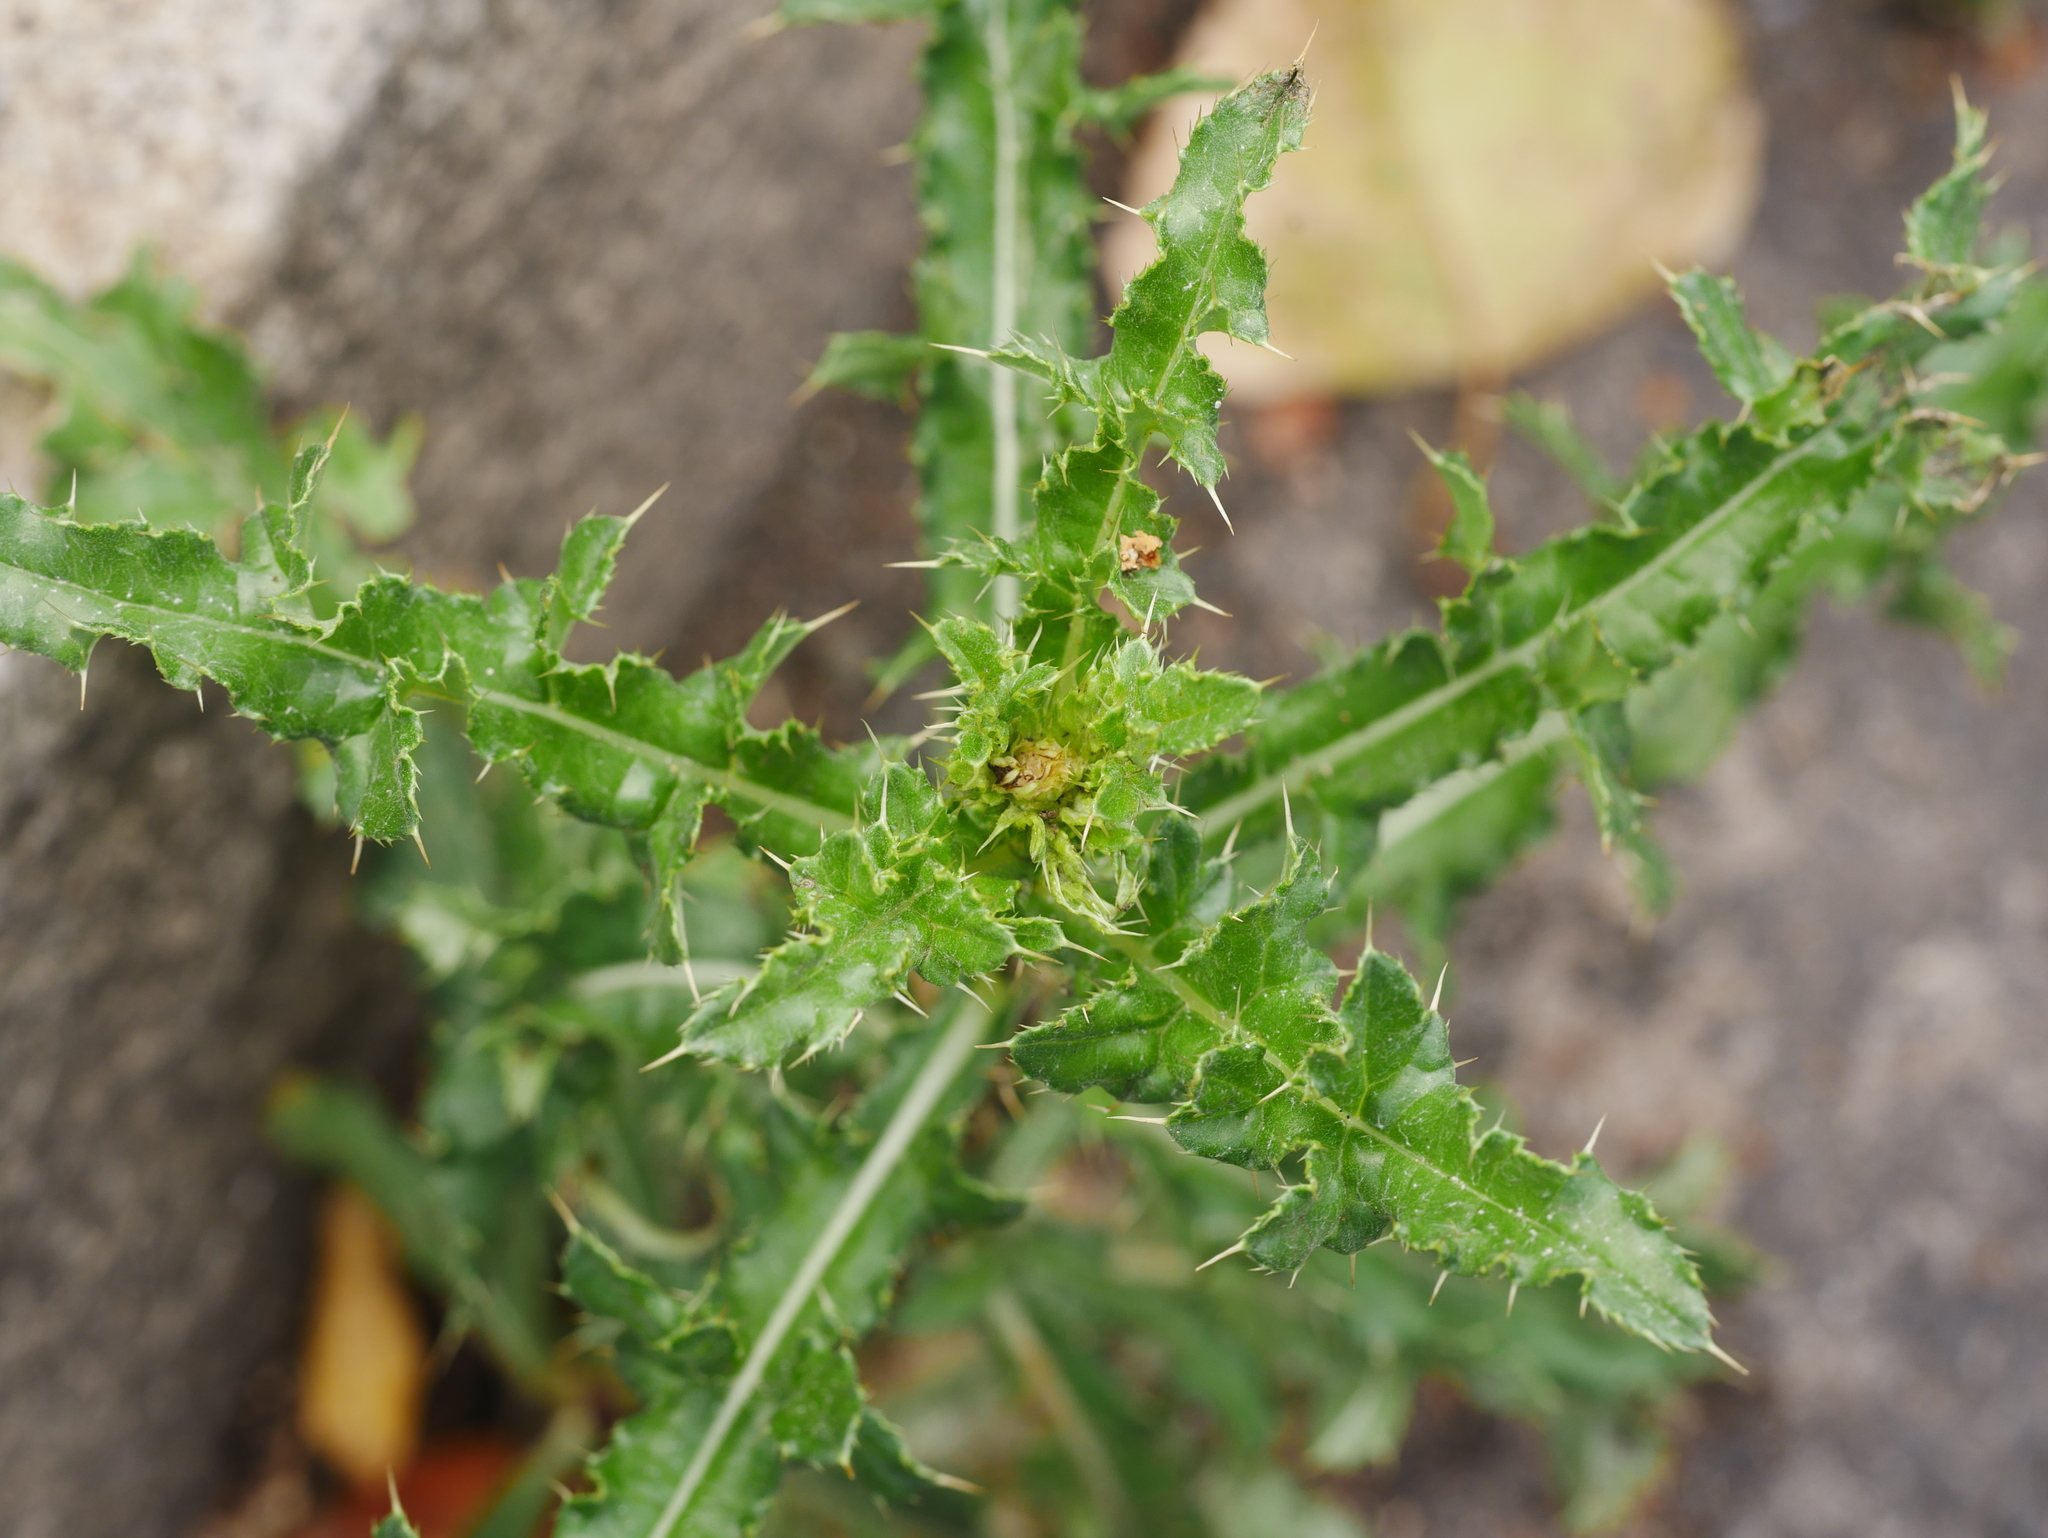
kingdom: Plantae
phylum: Tracheophyta
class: Magnoliopsida
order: Asterales
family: Asteraceae
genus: Cirsium
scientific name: Cirsium arvense
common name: Creeping thistle
